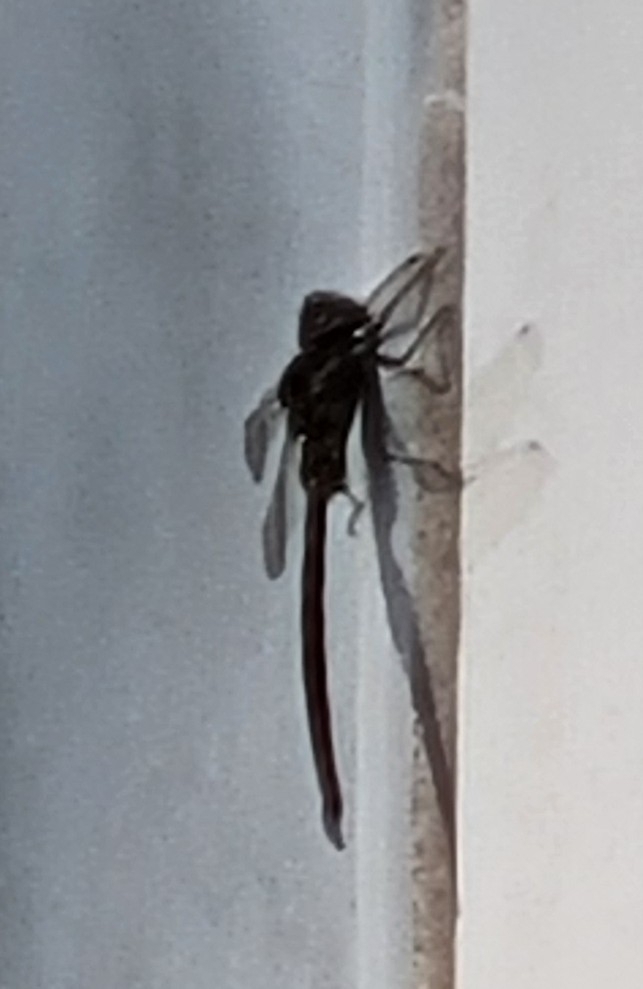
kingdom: Animalia
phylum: Arthropoda
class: Insecta
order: Odonata
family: Aeshnidae
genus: Gomphaeschna
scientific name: Gomphaeschna furcillata
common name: Harlequin darner
